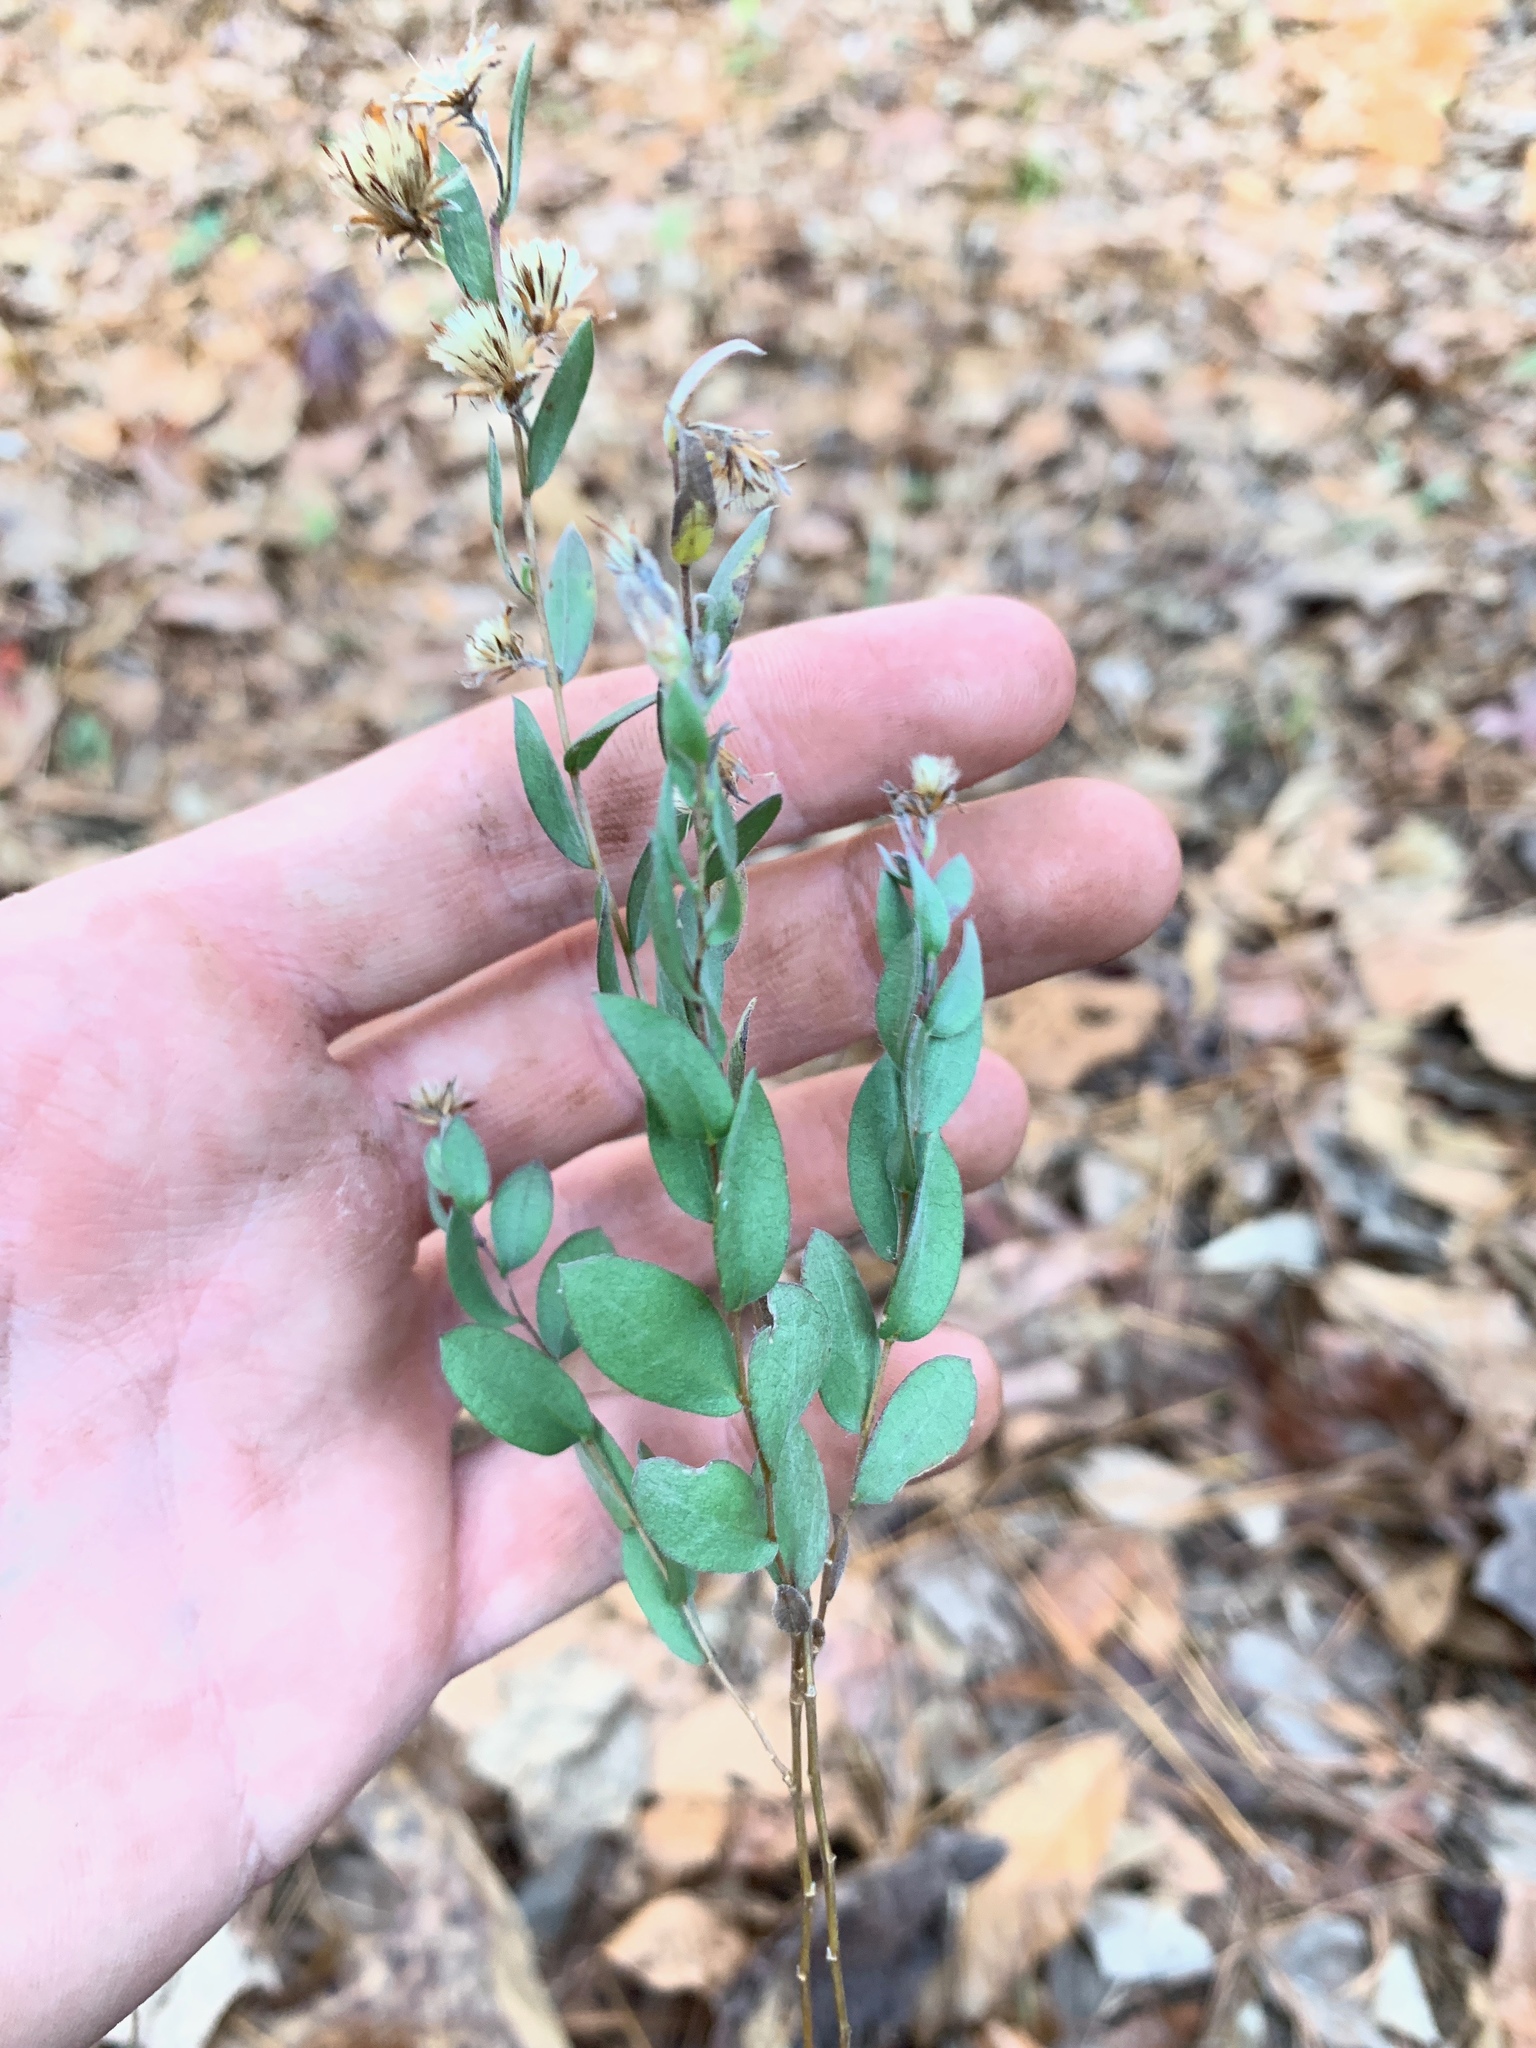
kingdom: Plantae
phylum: Tracheophyta
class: Magnoliopsida
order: Asterales
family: Asteraceae
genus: Symphyotrichum
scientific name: Symphyotrichum concolor
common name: Eastern silver aster
